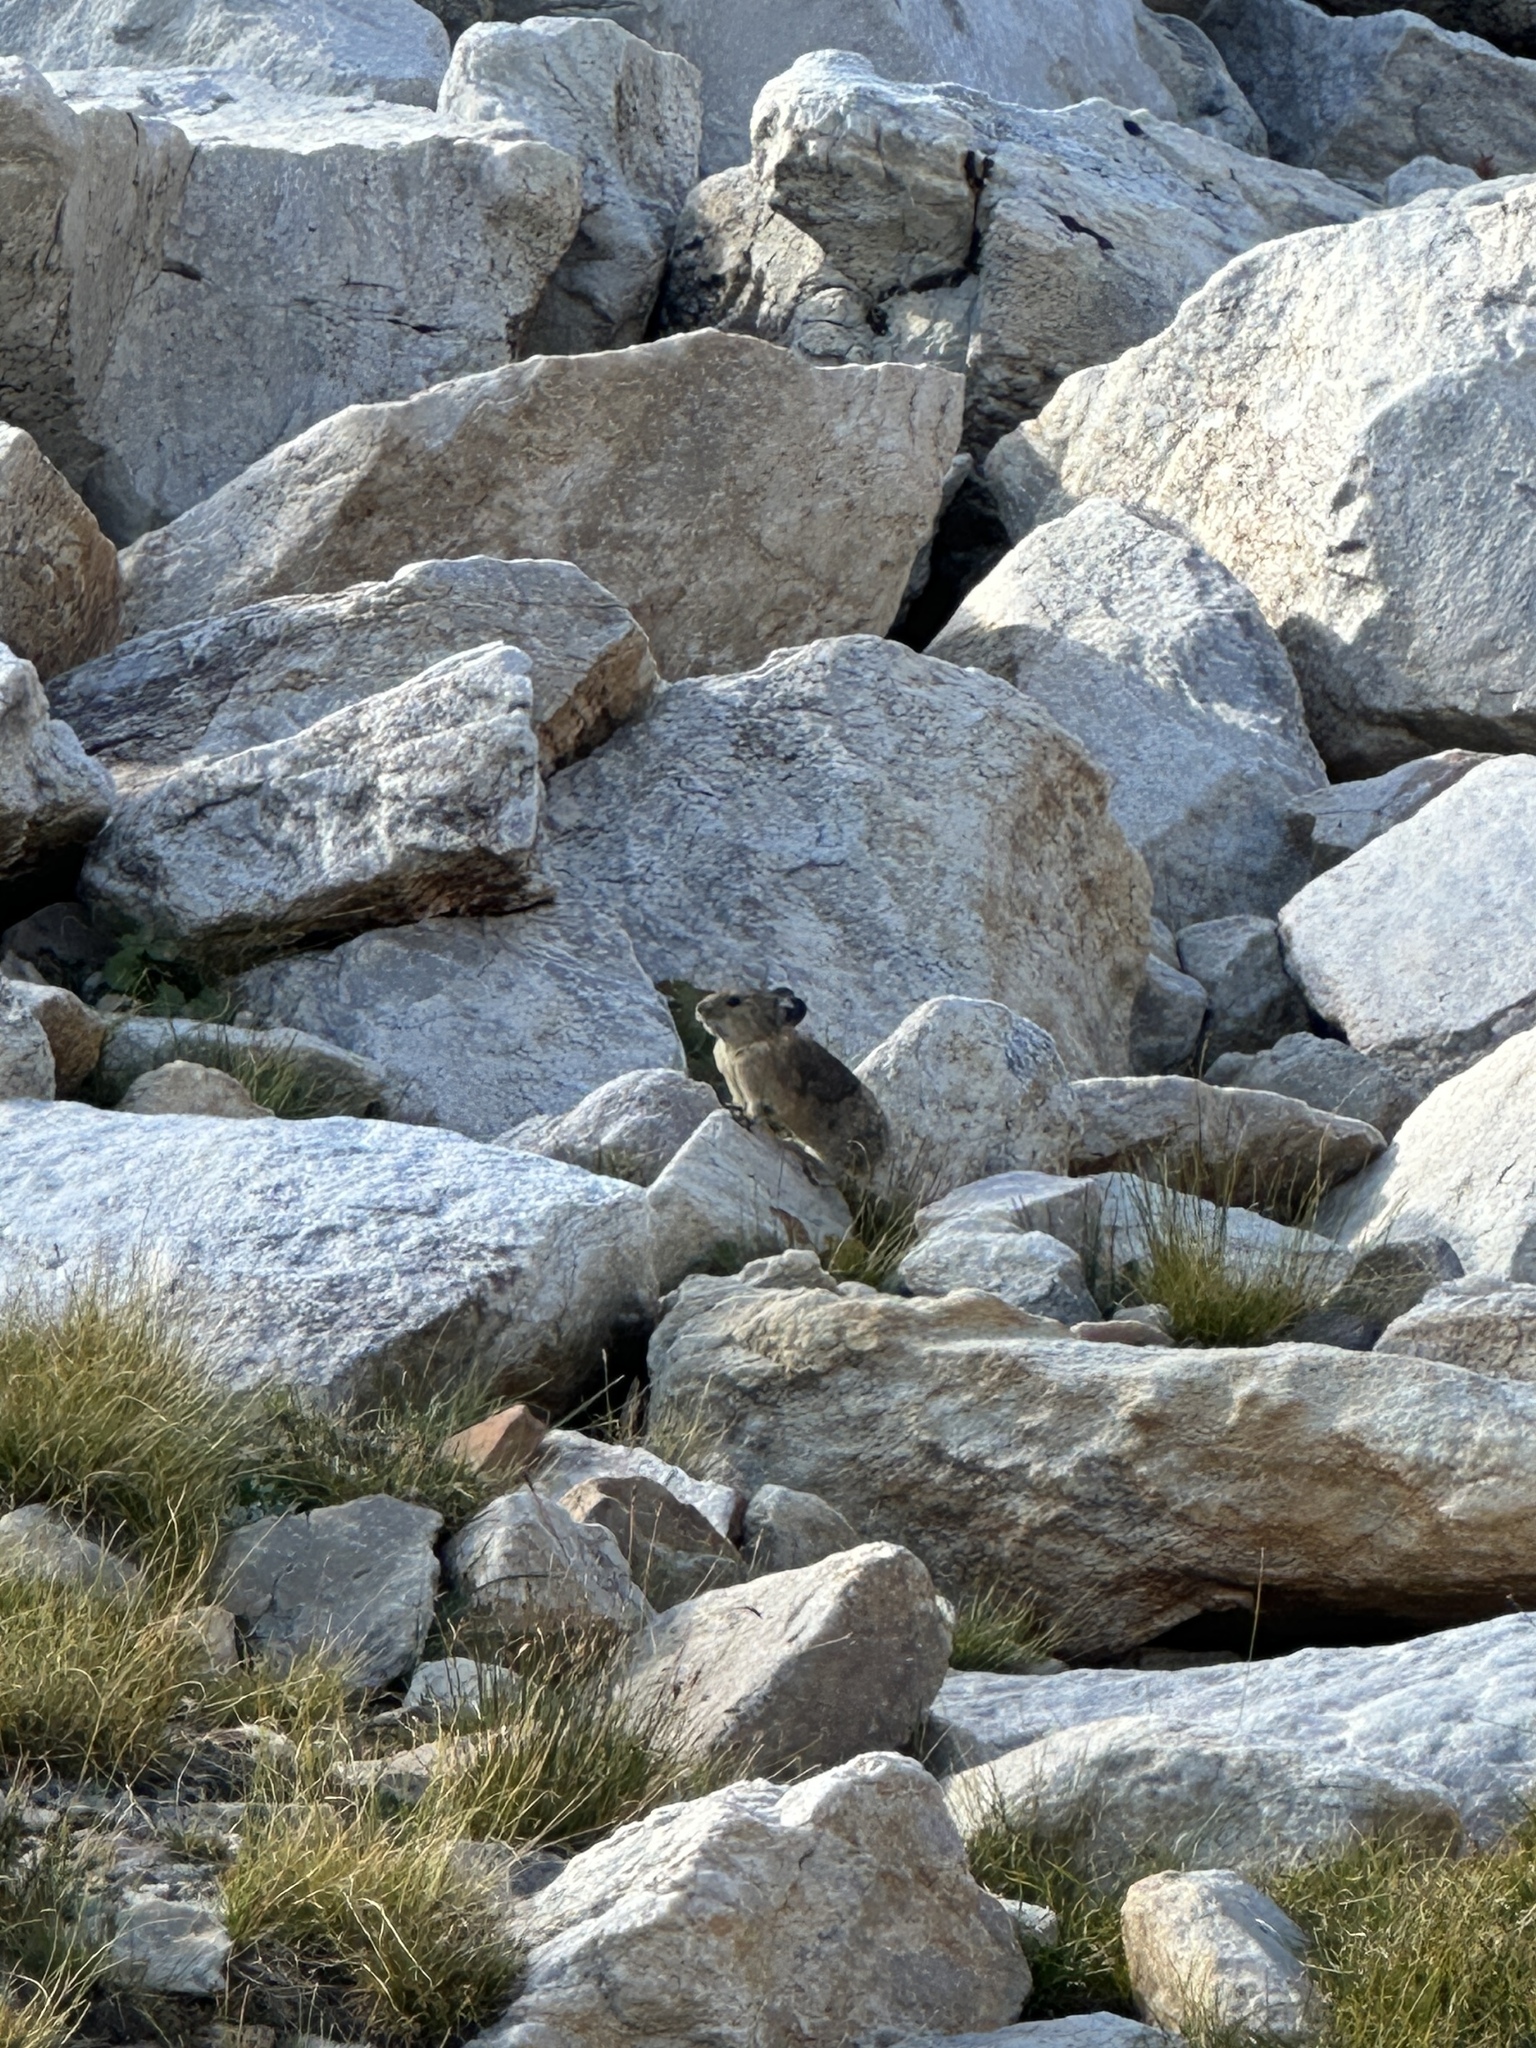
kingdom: Animalia
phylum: Chordata
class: Mammalia
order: Lagomorpha
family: Ochotonidae
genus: Ochotona
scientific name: Ochotona princeps
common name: American pika
